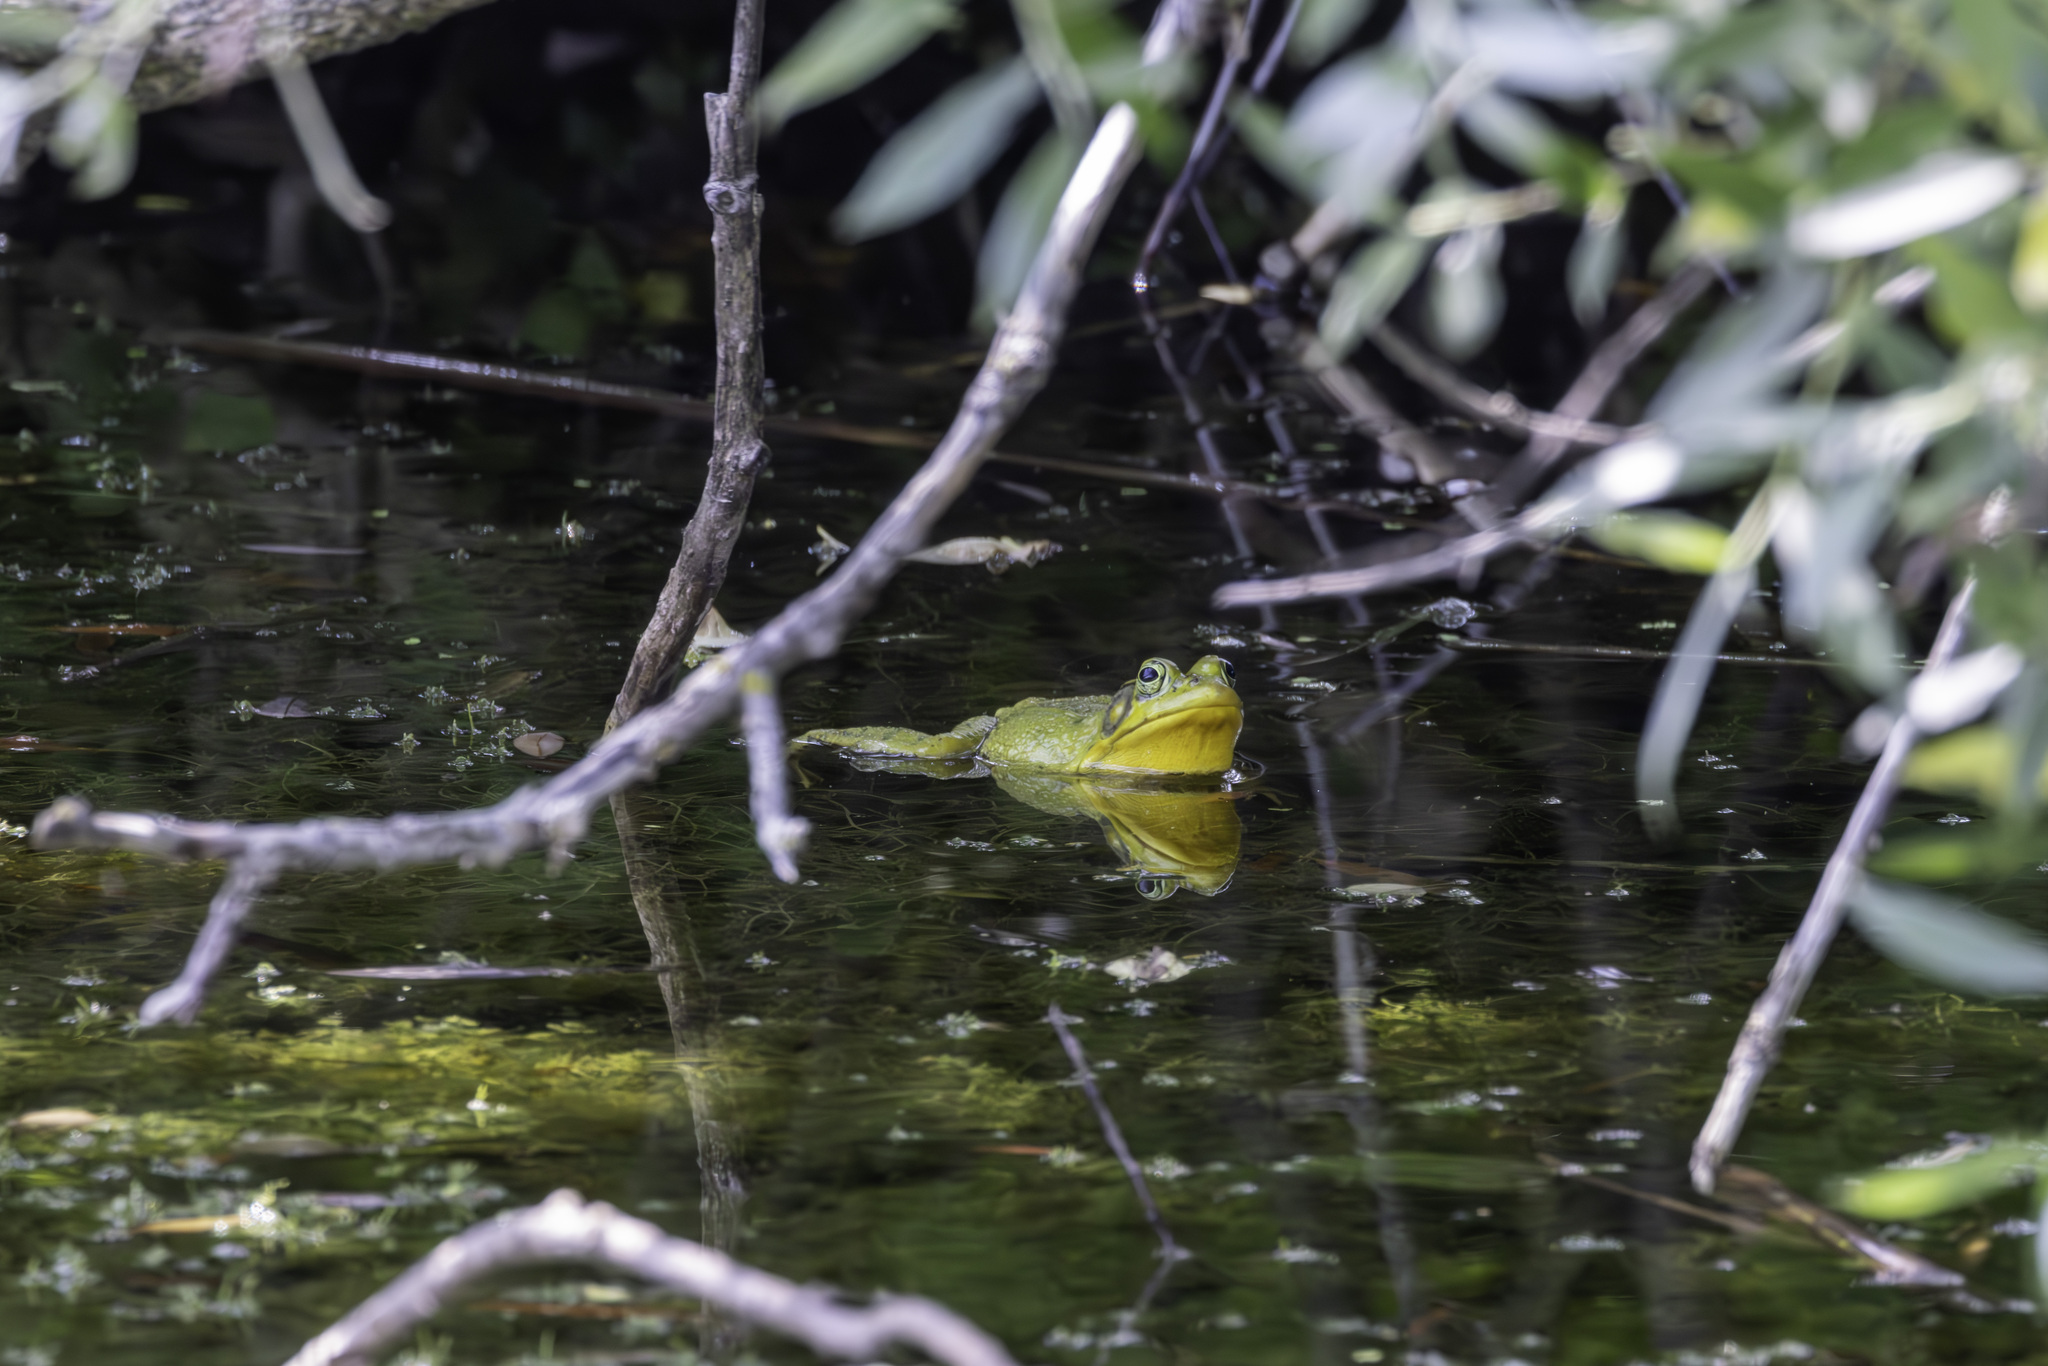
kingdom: Animalia
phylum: Chordata
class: Amphibia
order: Anura
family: Ranidae
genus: Lithobates
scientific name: Lithobates catesbeianus
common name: American bullfrog
